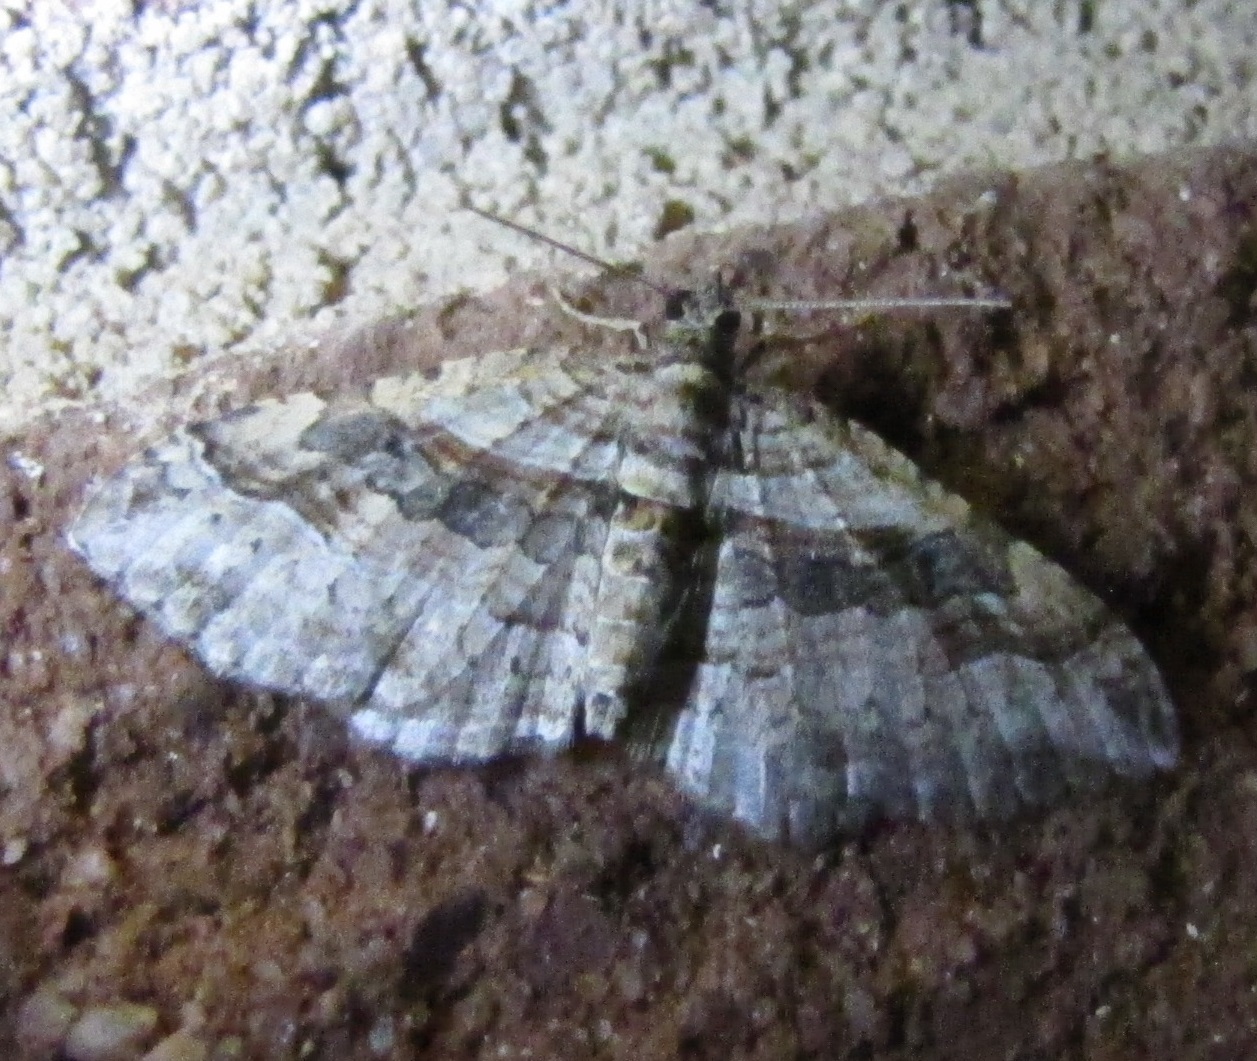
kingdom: Animalia
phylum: Arthropoda
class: Insecta
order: Lepidoptera
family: Geometridae
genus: Costaconvexa
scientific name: Costaconvexa centrostrigaria
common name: Bent-line carpet
